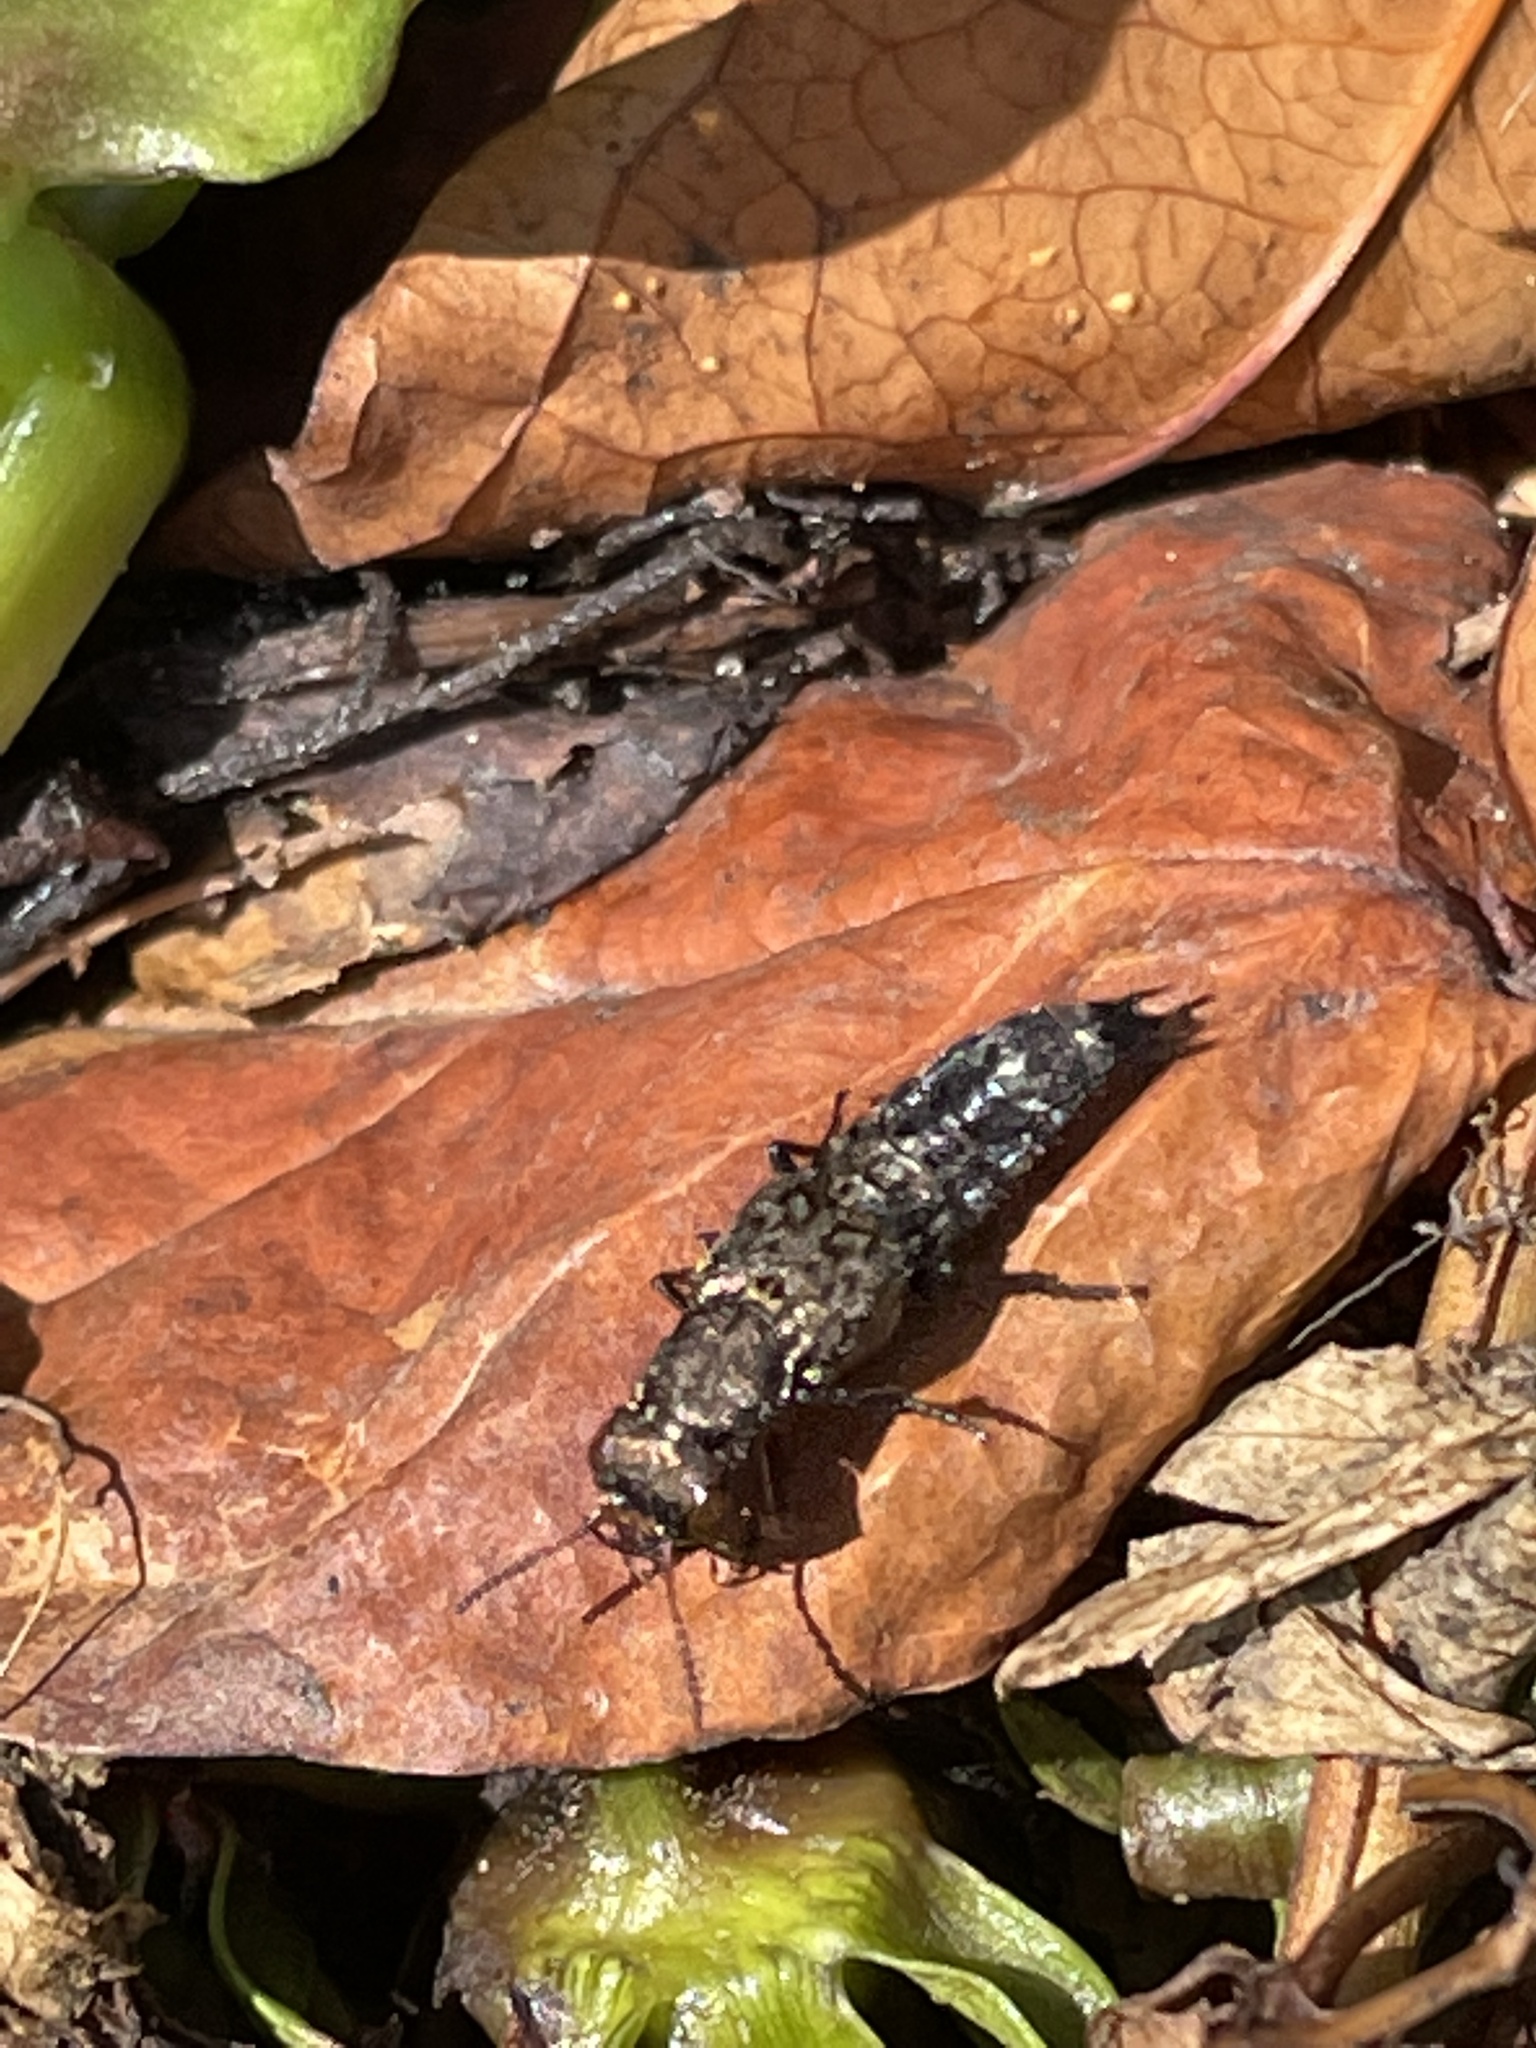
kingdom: Animalia
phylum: Arthropoda
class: Insecta
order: Coleoptera
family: Staphylinidae
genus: Ontholestes
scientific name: Ontholestes murinus
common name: Staph beetle
